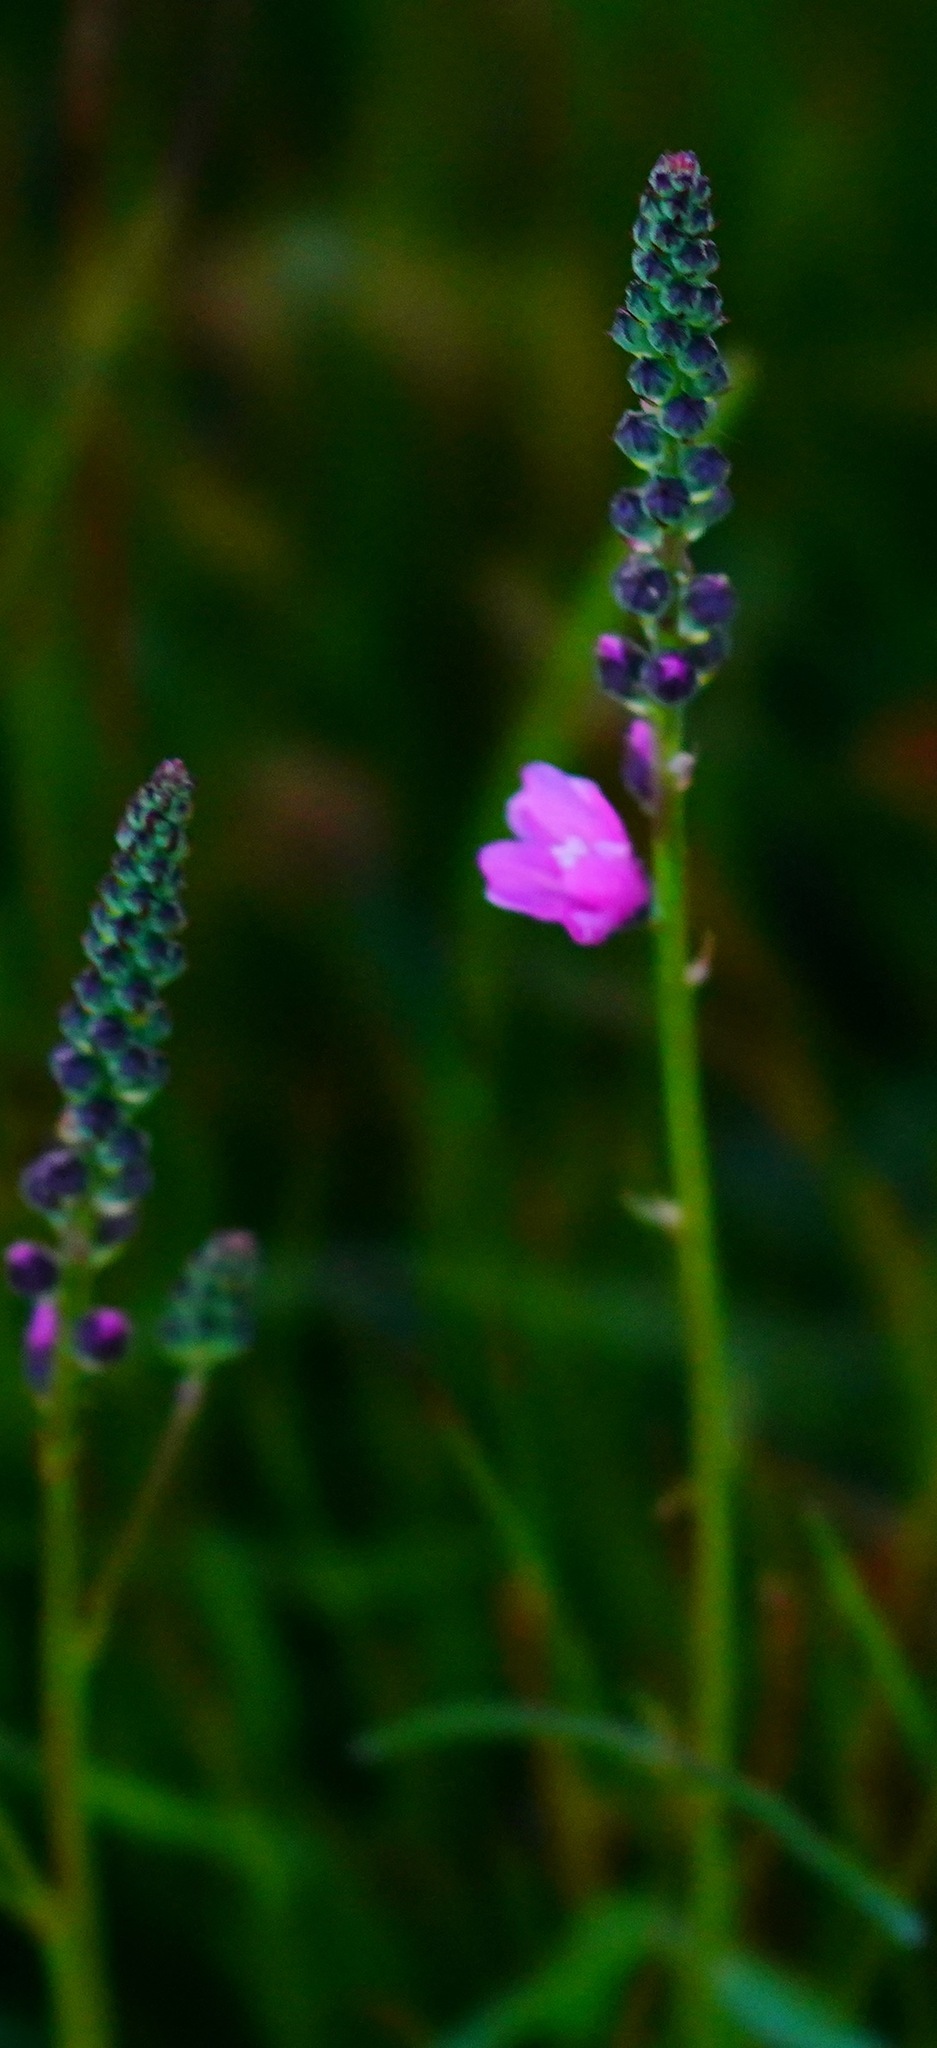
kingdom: Plantae
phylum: Tracheophyta
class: Magnoliopsida
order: Malvales
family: Malvaceae
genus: Sidalcea
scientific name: Sidalcea oregana
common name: Oregon checker-mallow
